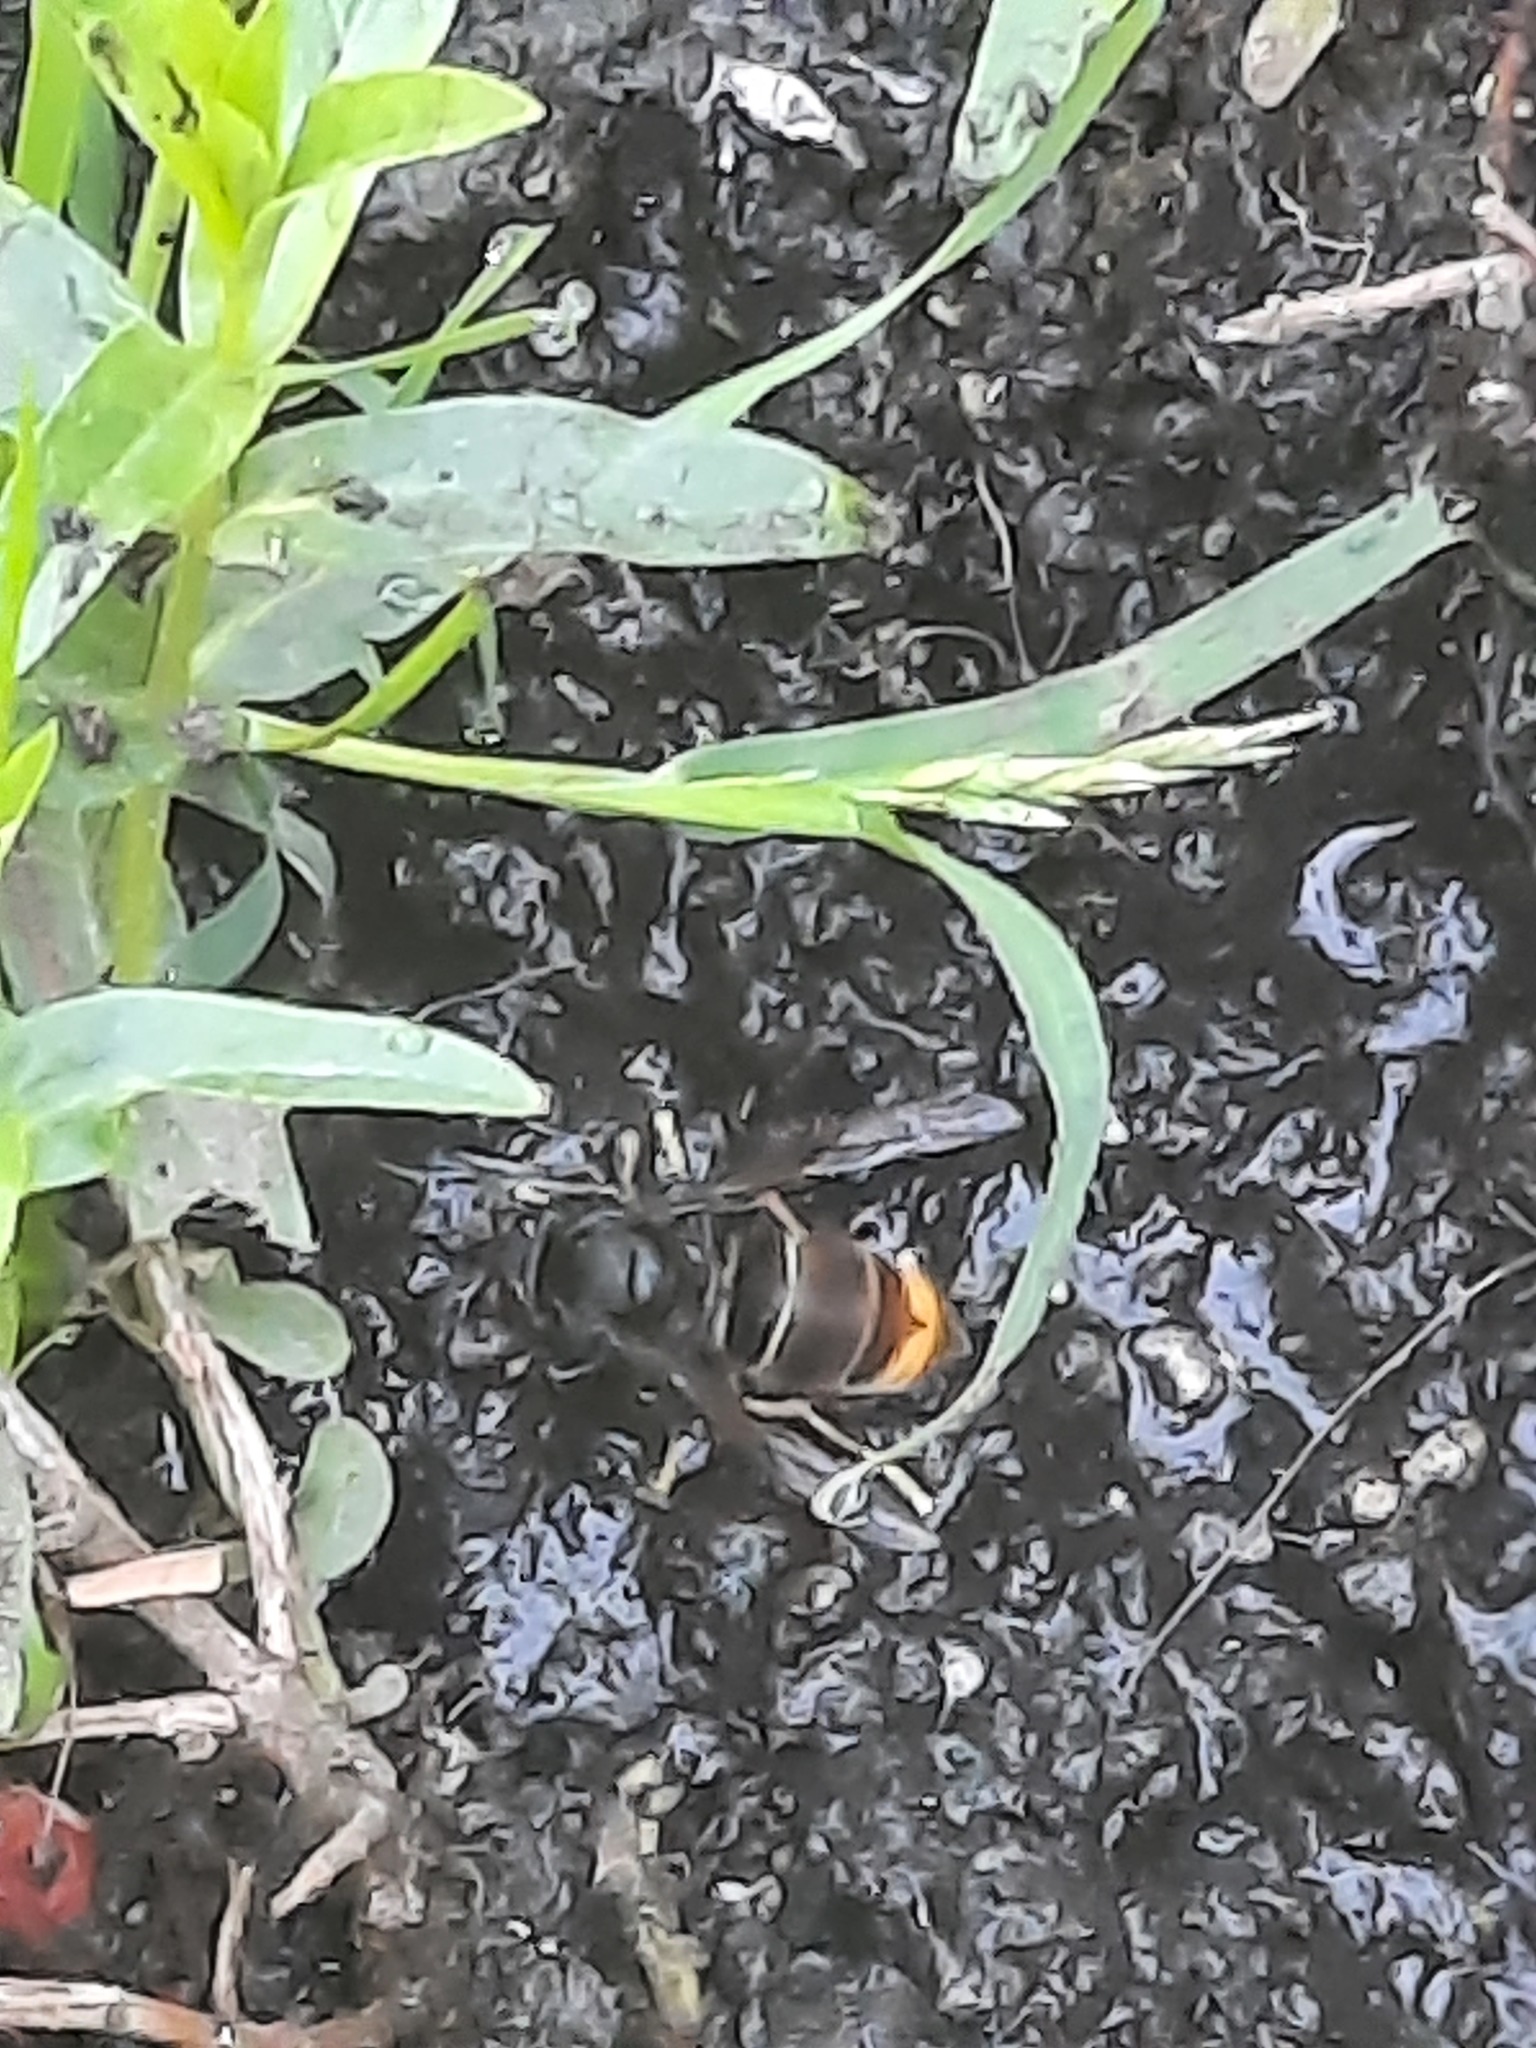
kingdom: Animalia
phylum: Arthropoda
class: Insecta
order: Hymenoptera
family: Vespidae
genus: Vespa
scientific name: Vespa velutina
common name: Asian hornet
